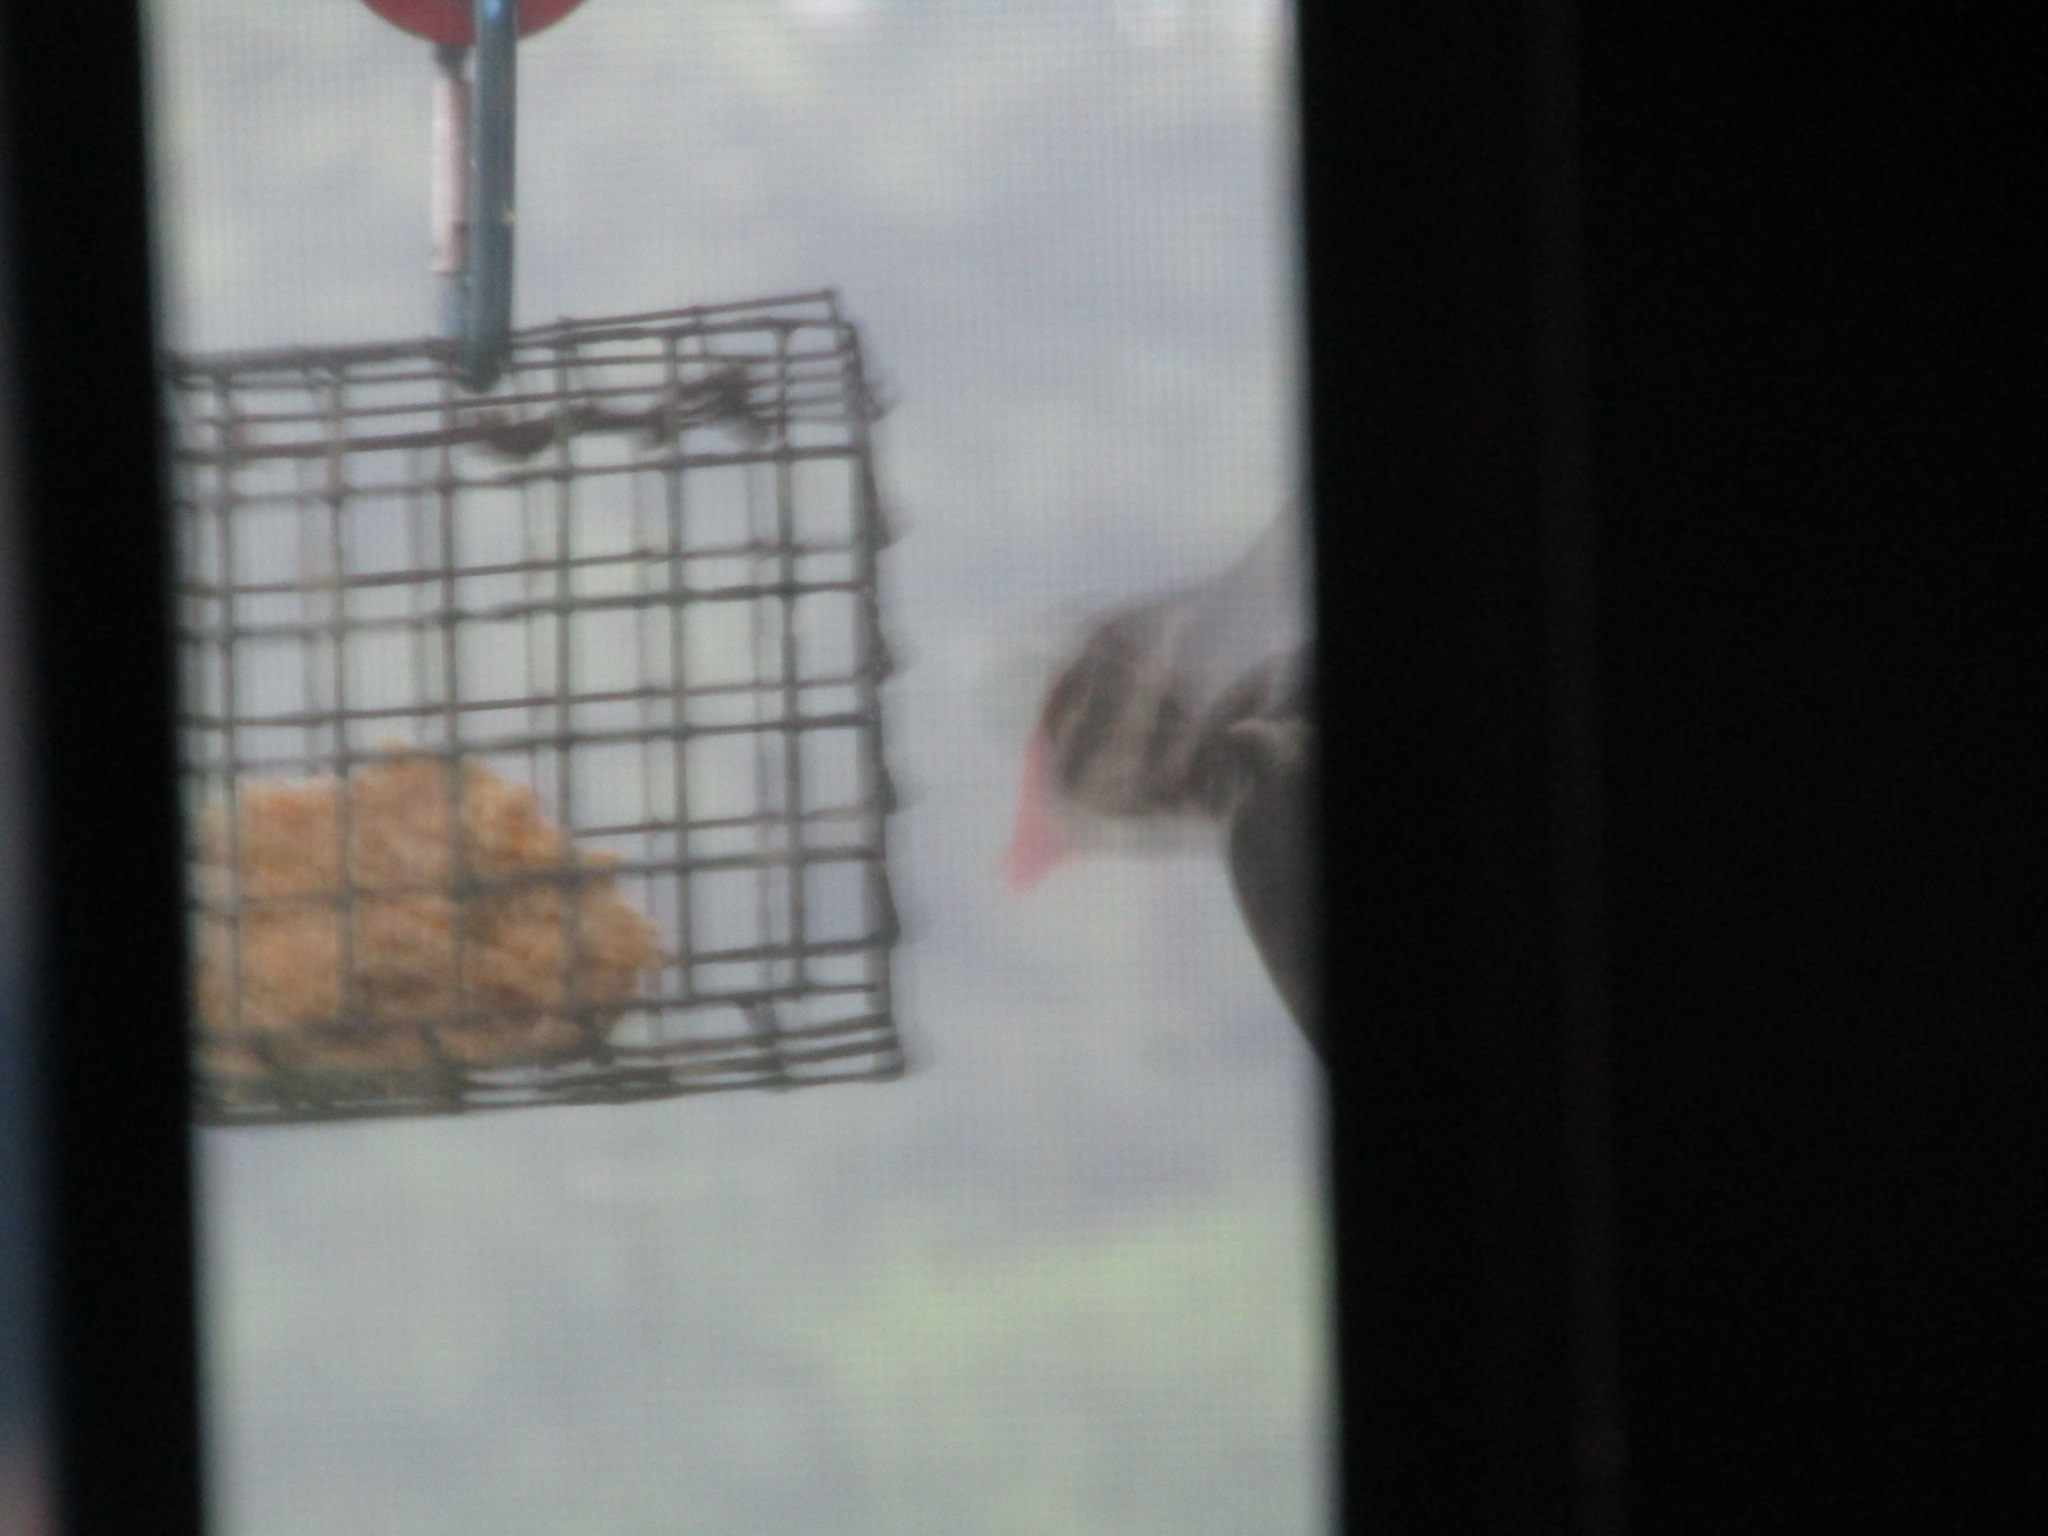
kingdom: Animalia
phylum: Chordata
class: Aves
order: Piciformes
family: Picidae
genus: Dryocopus
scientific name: Dryocopus pileatus
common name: Pileated woodpecker
